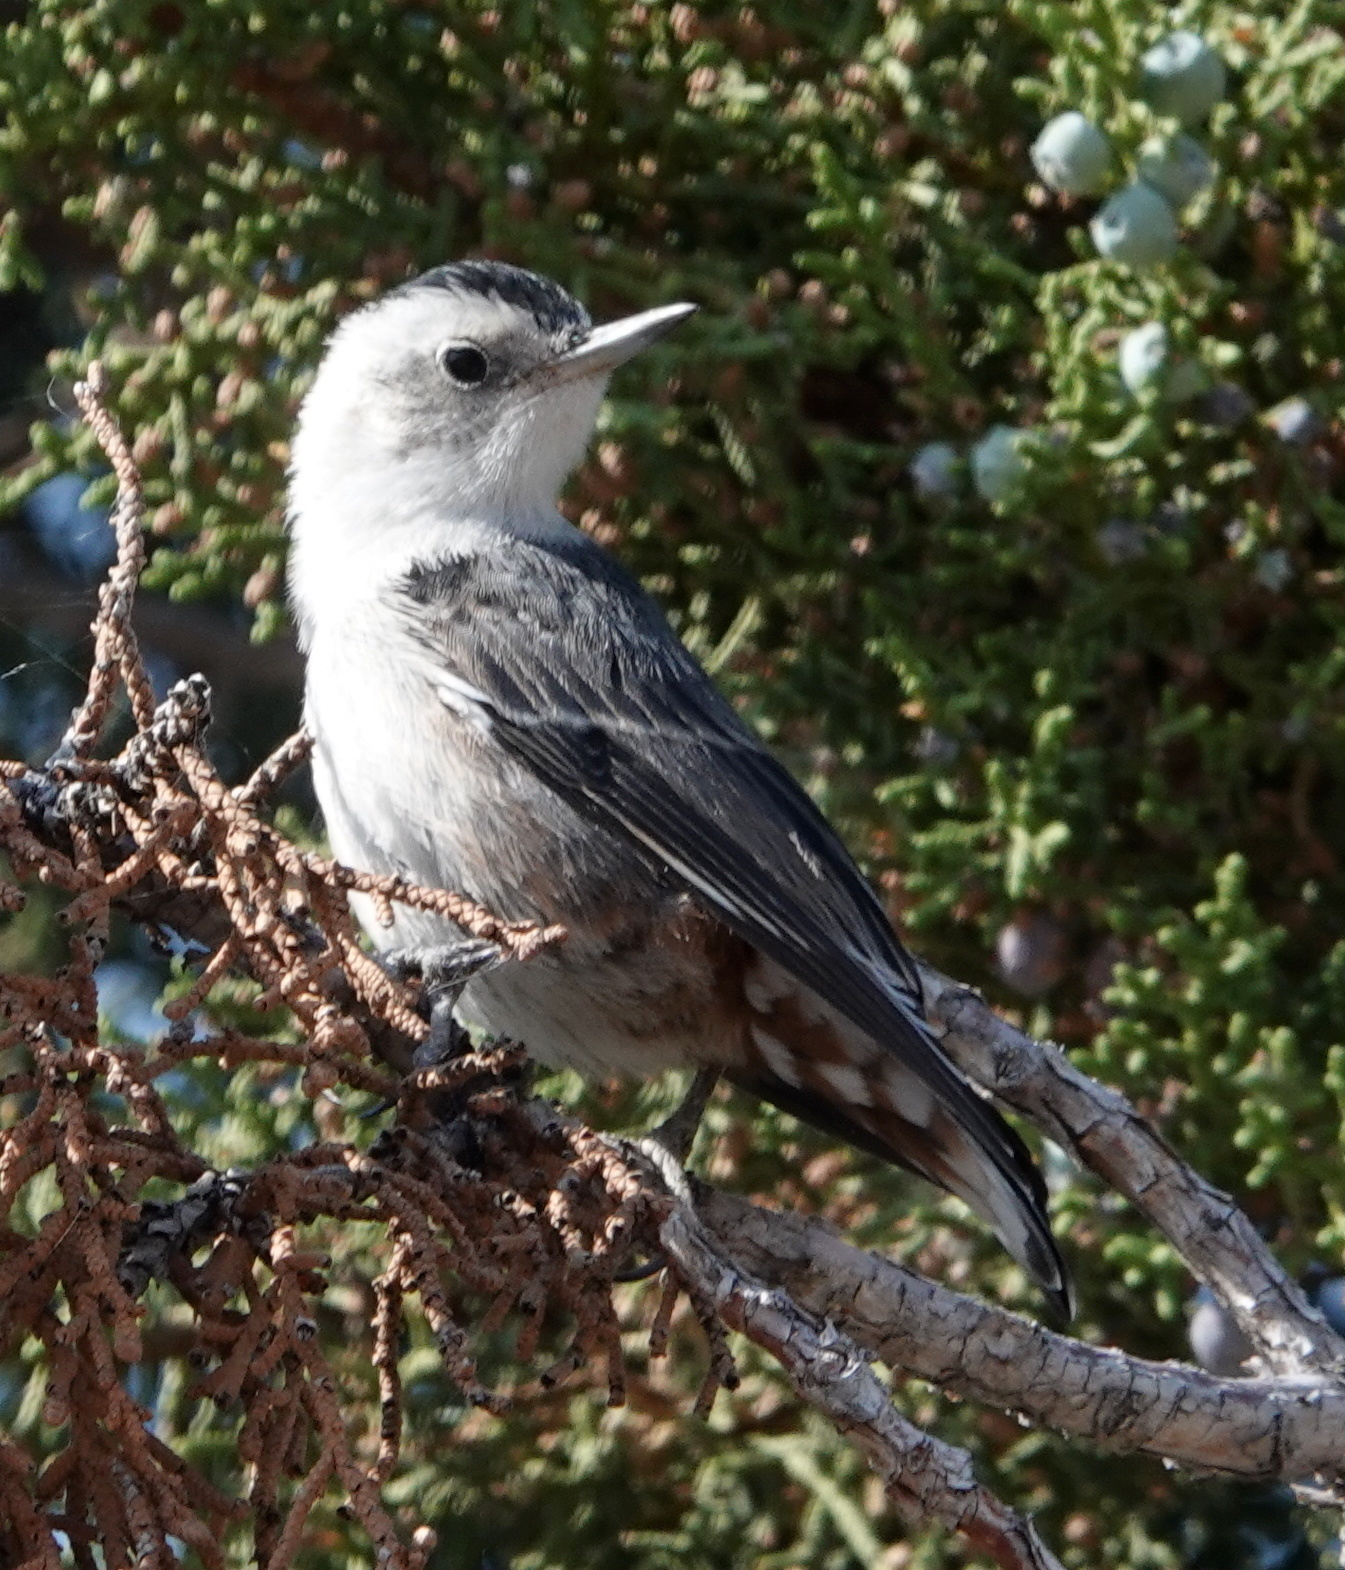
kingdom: Animalia
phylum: Chordata
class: Aves
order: Passeriformes
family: Sittidae
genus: Sitta
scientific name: Sitta carolinensis
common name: White-breasted nuthatch
